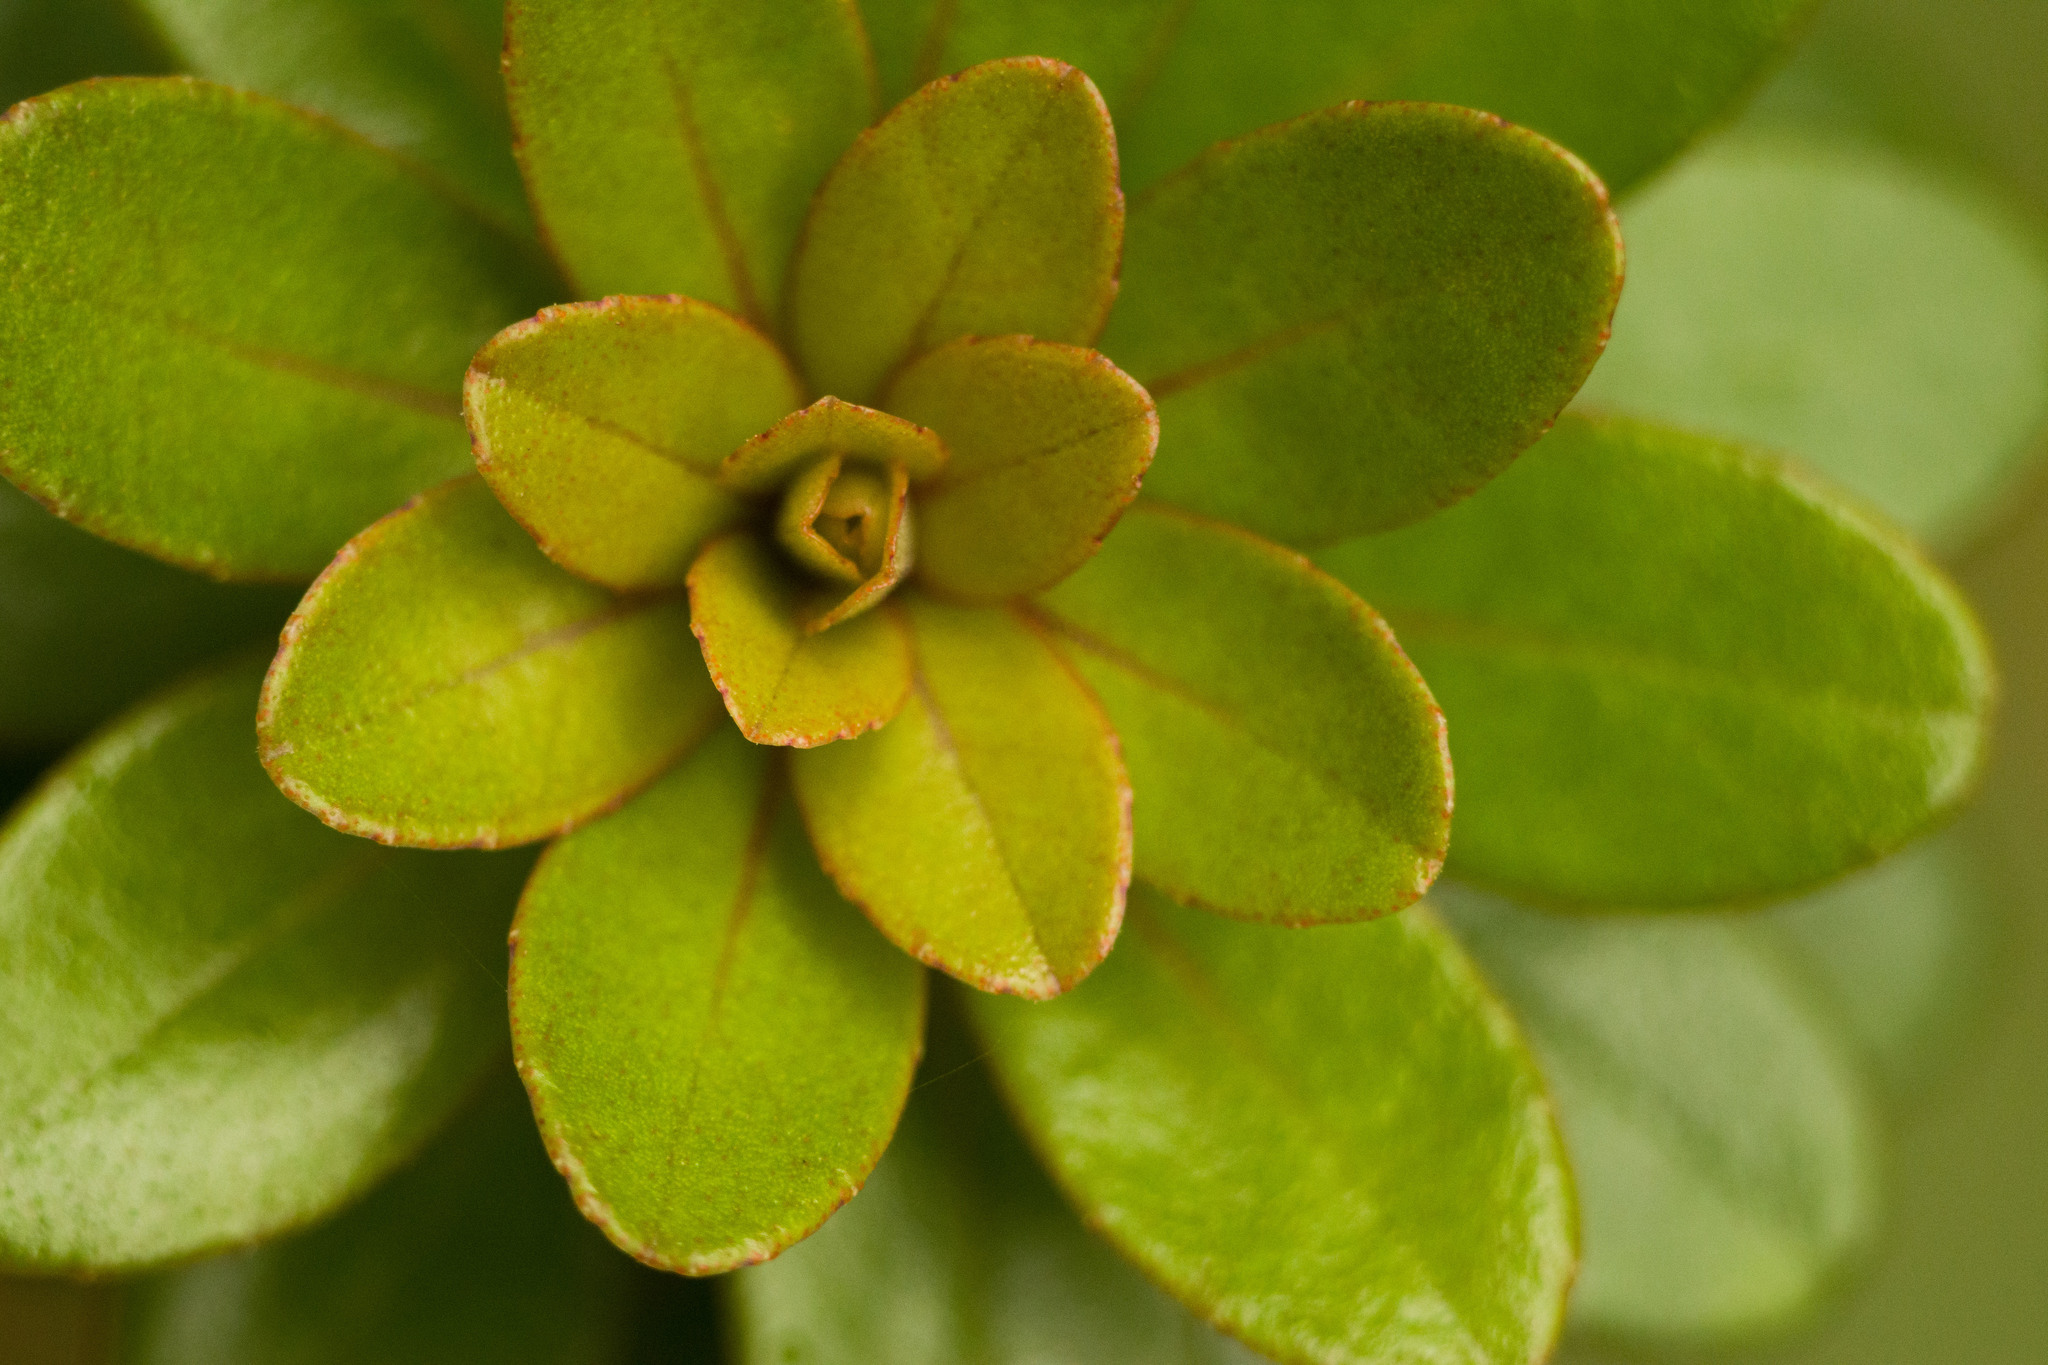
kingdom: Plantae
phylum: Tracheophyta
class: Magnoliopsida
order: Ericales
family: Primulaceae
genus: Myrsine
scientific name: Myrsine sandwicensis
